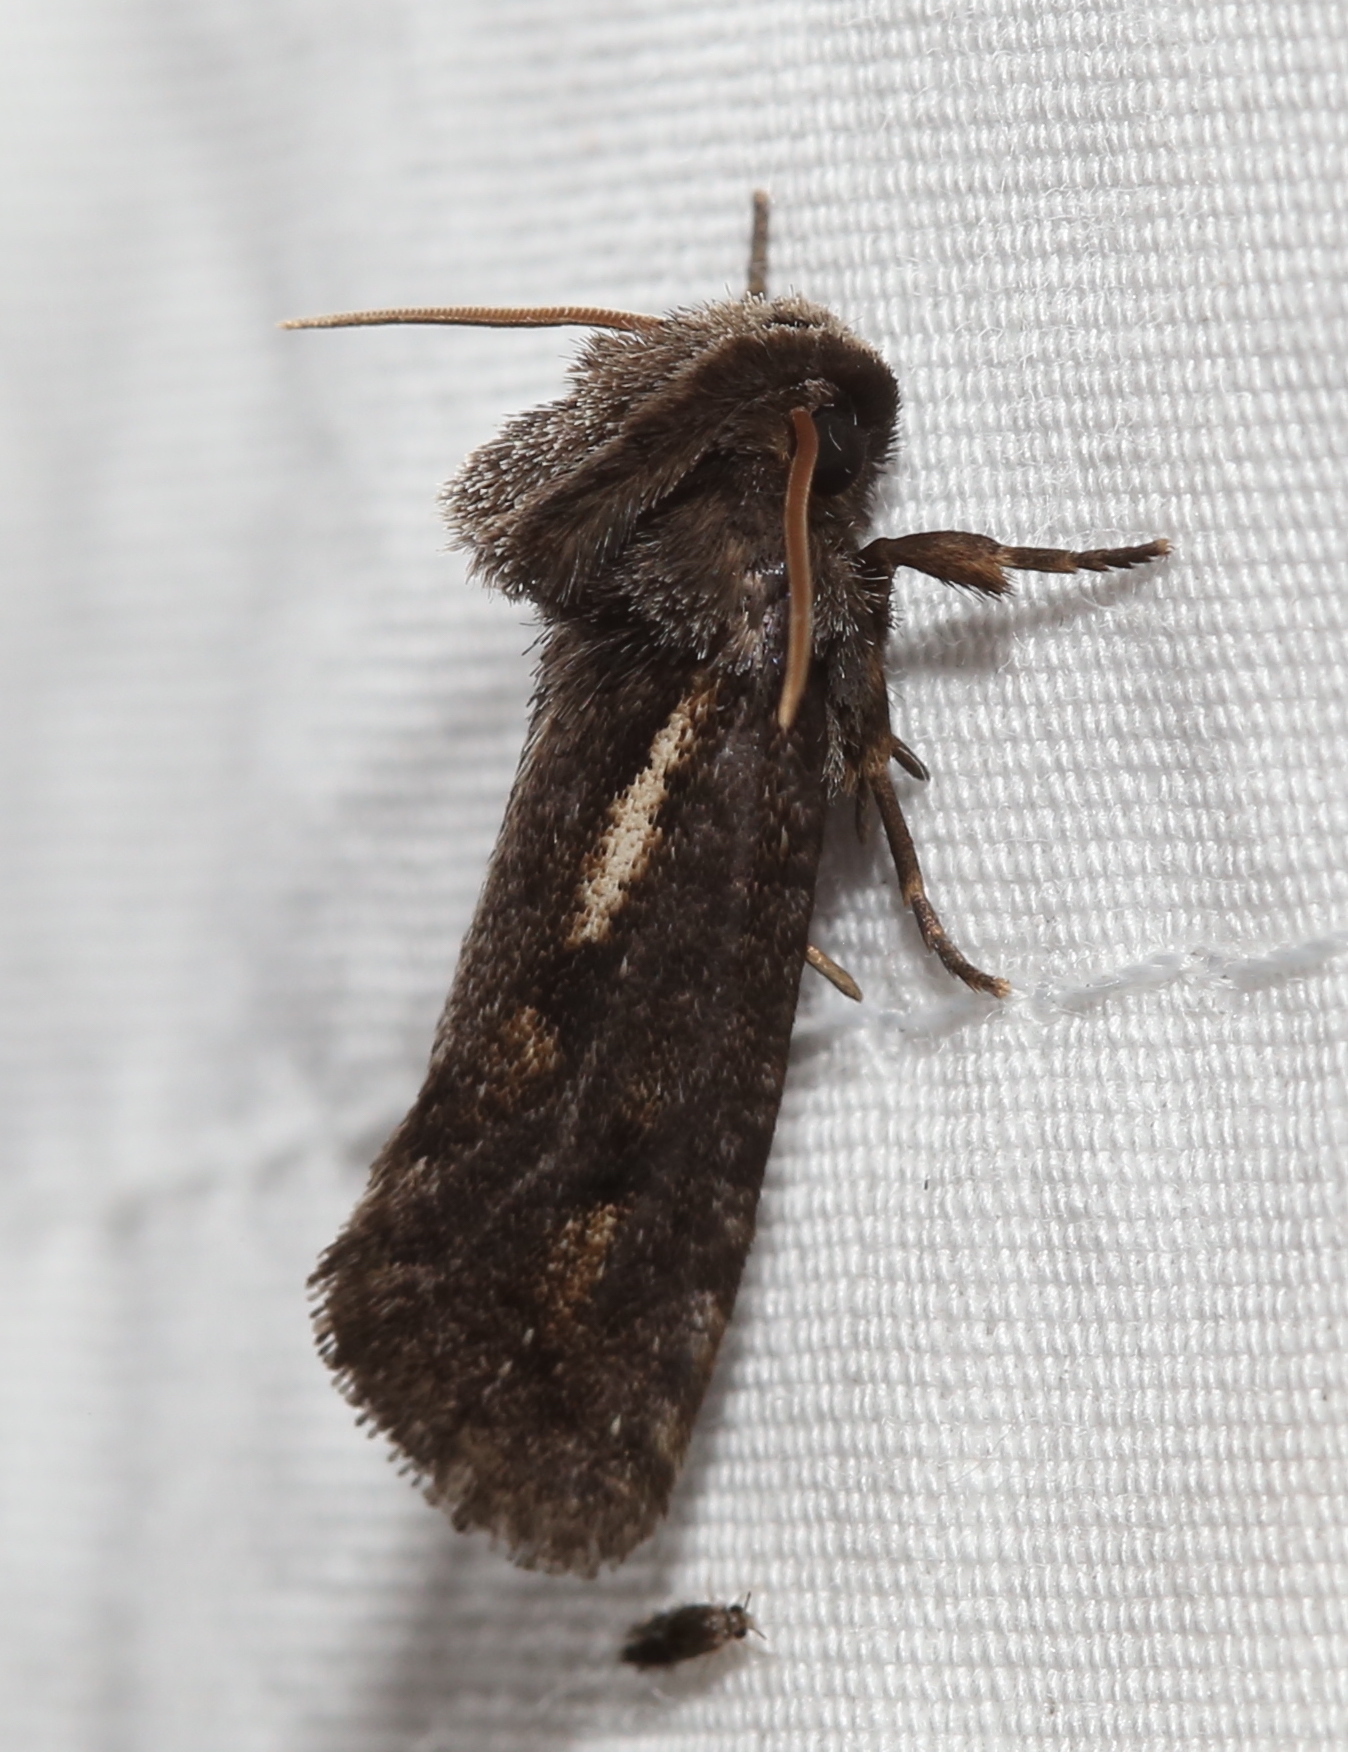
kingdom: Animalia
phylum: Arthropoda
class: Insecta
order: Lepidoptera
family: Tineidae
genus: Acrolophus
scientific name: Acrolophus popeanella
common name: Clemens' grass tubeworm moth
